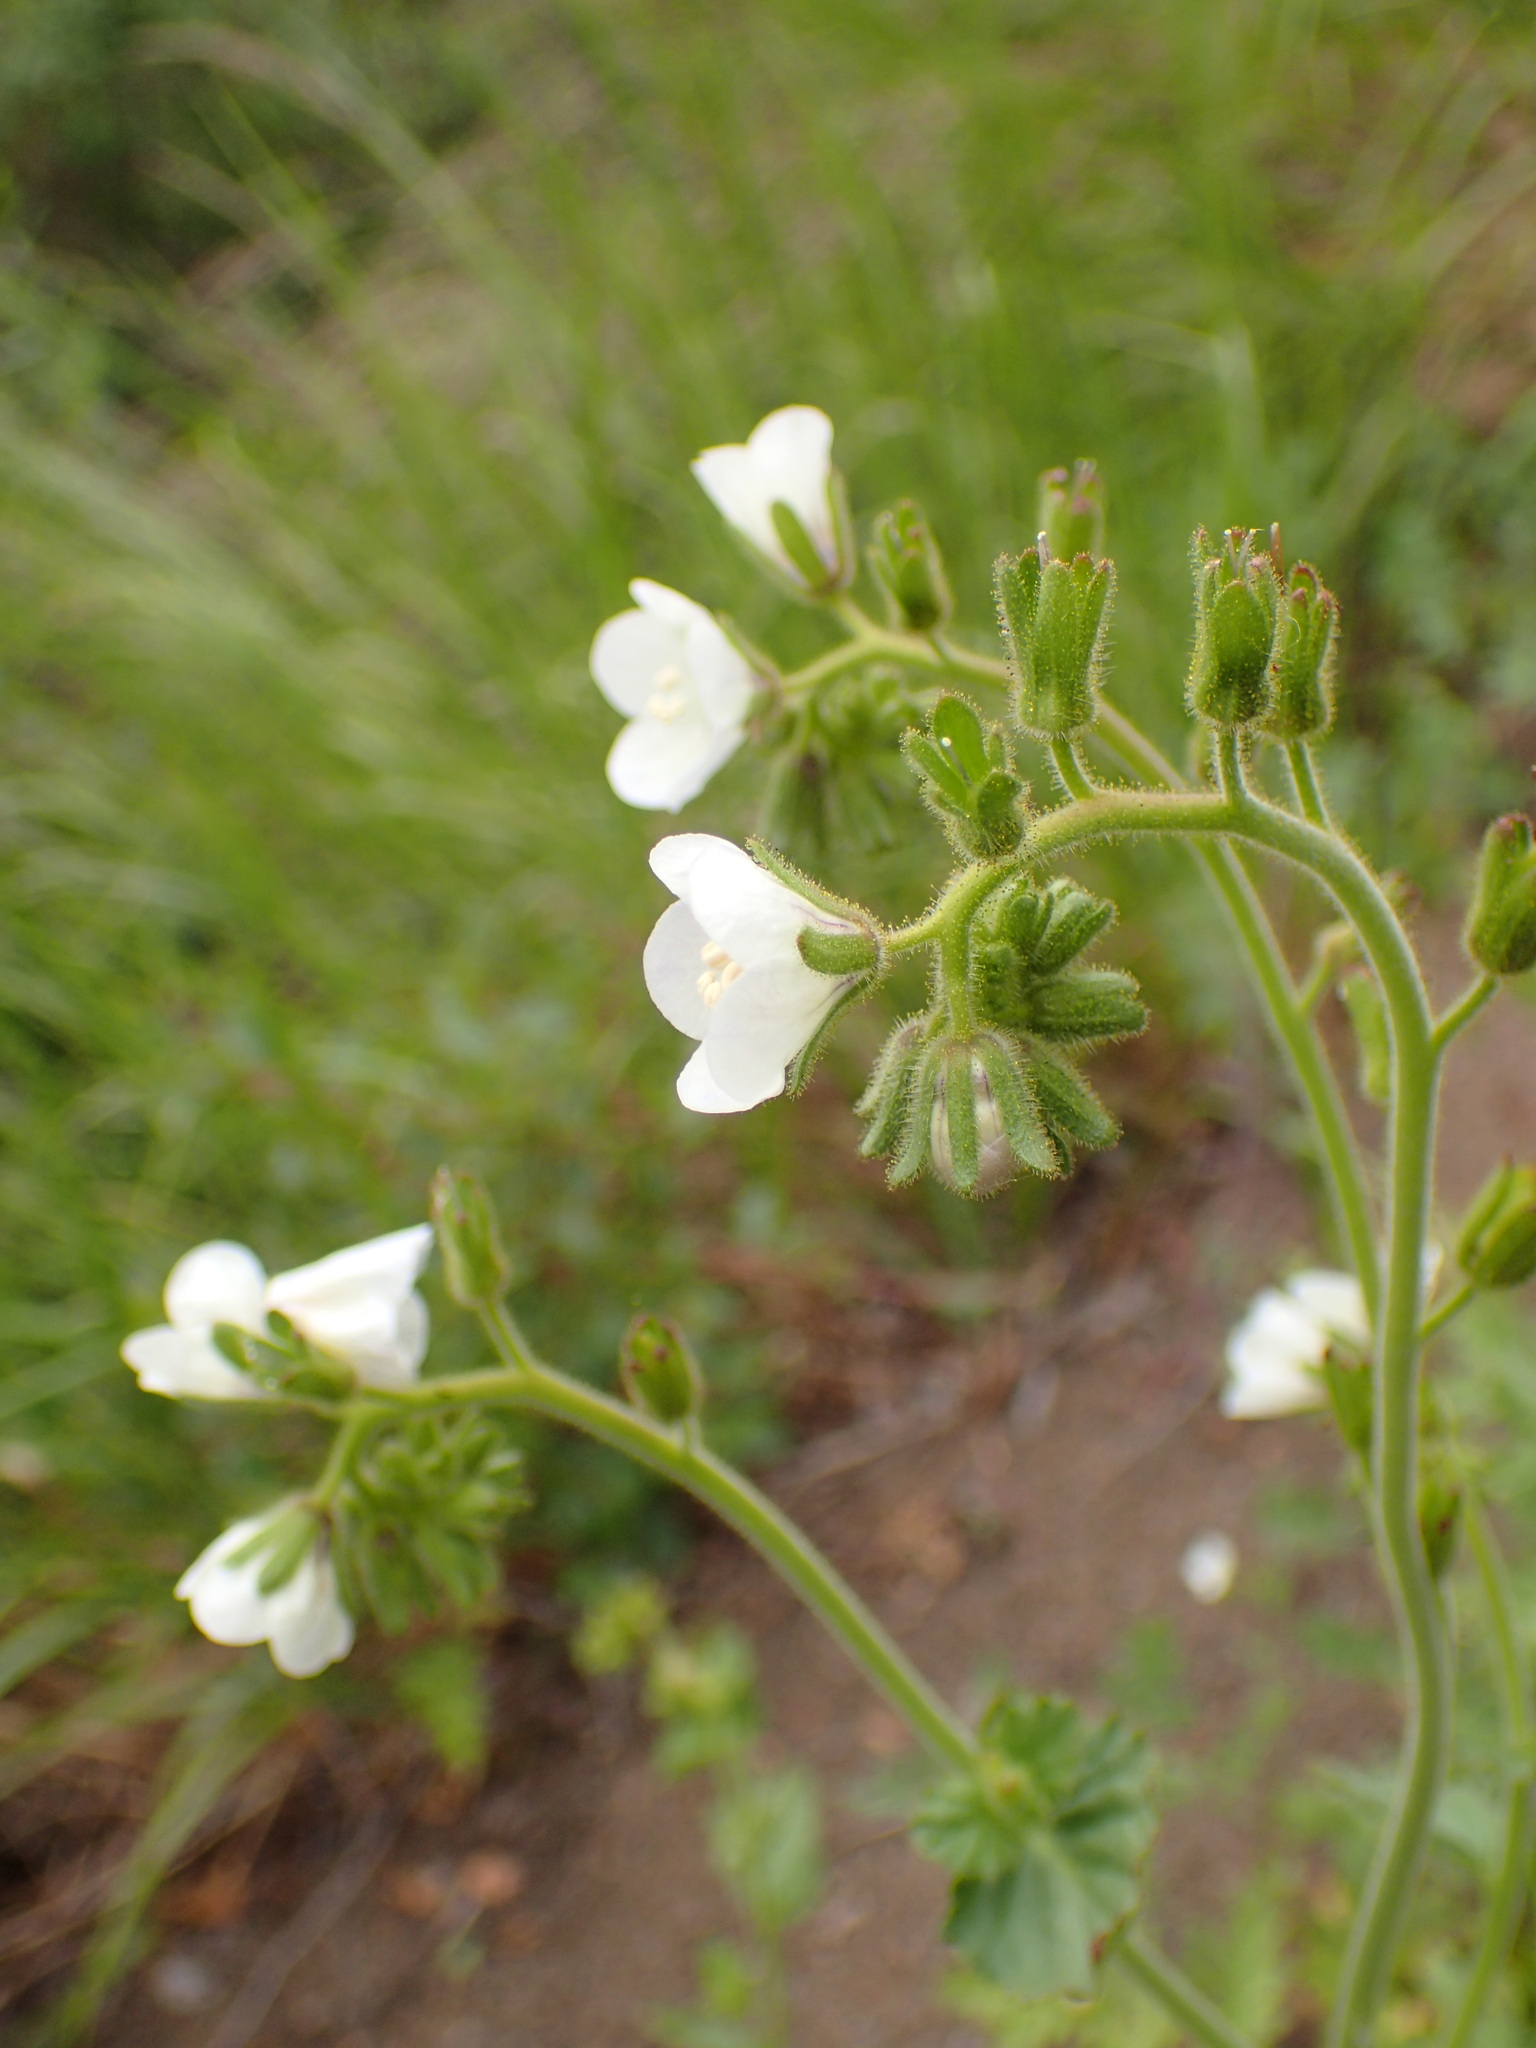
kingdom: Plantae
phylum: Tracheophyta
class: Magnoliopsida
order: Boraginales
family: Hydrophyllaceae
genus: Phacelia
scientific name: Phacelia viscida
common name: Sticky phacelia
